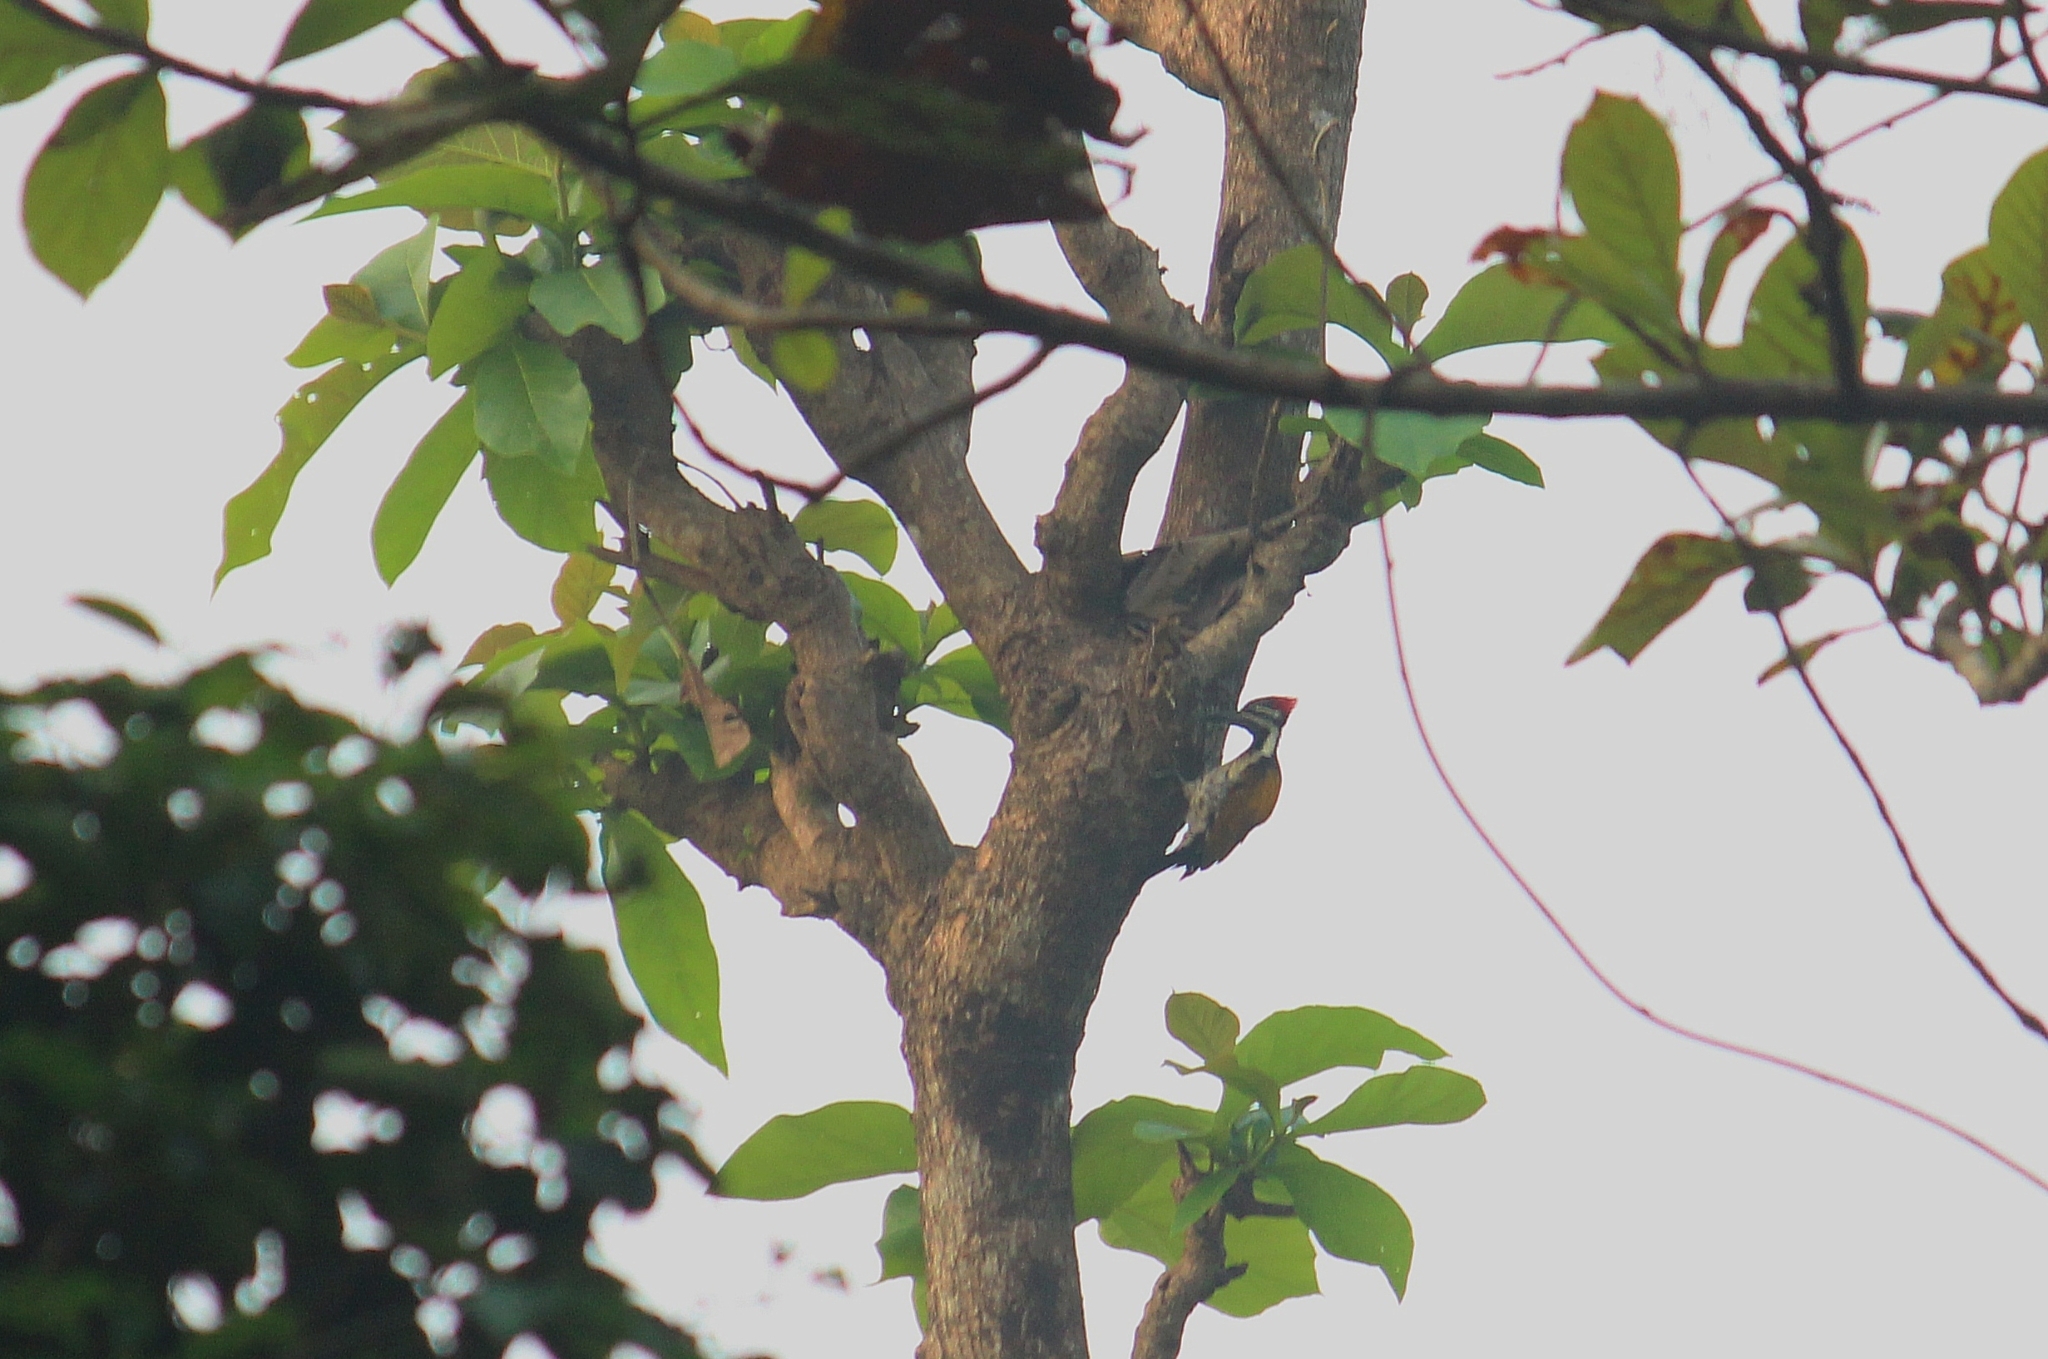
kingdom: Animalia
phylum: Chordata
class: Aves
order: Piciformes
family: Picidae
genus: Dinopium
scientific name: Dinopium benghalense
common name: Black-rumped flameback
